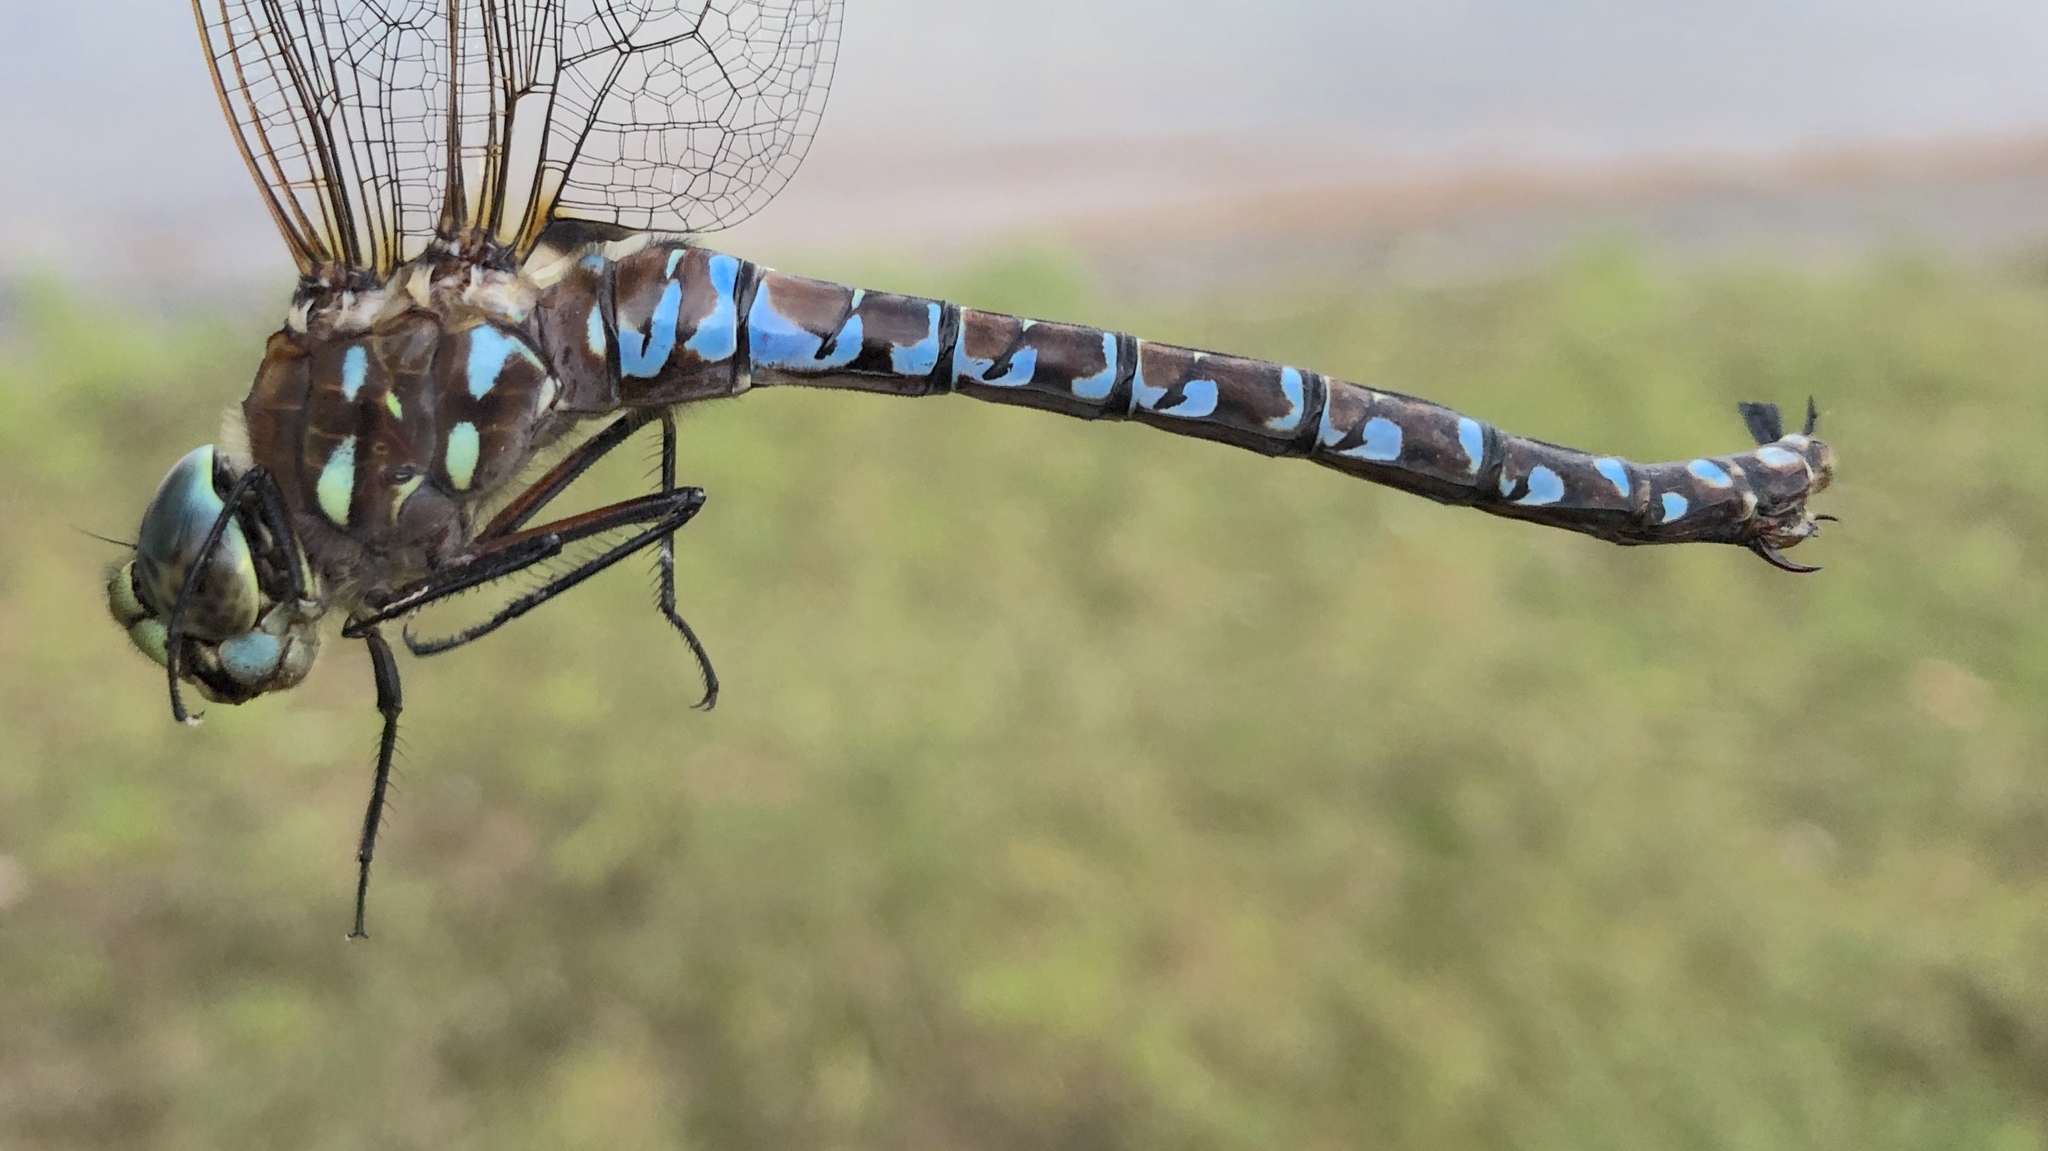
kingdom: Animalia
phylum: Arthropoda
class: Insecta
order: Odonata
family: Aeshnidae
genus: Aeshna
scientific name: Aeshna interrupta
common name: Variable darner
